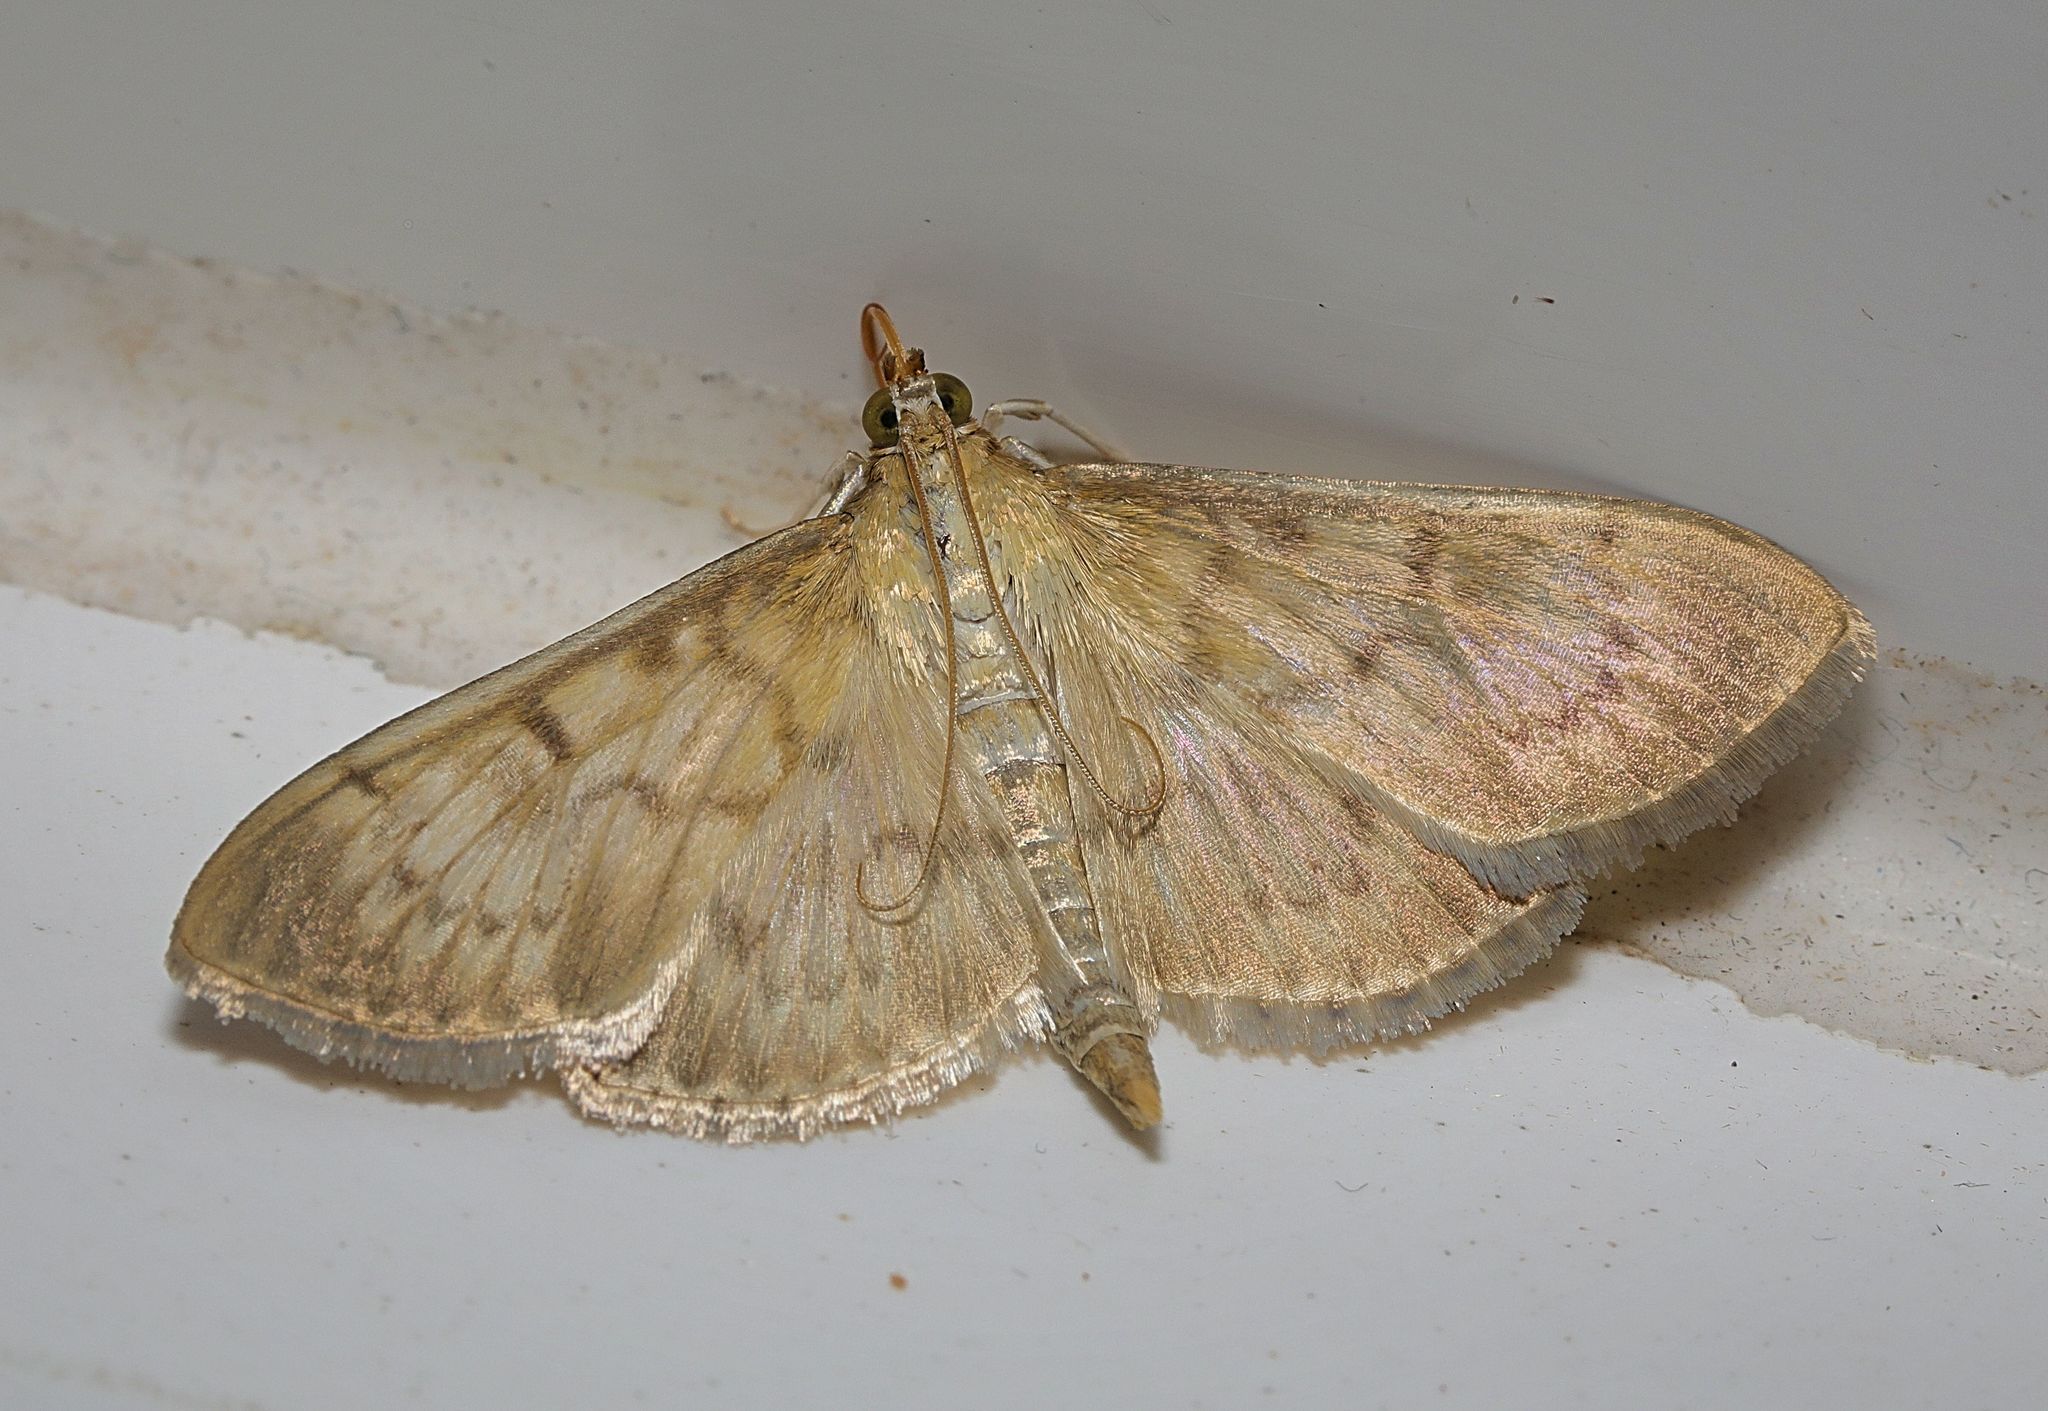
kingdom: Animalia
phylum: Arthropoda
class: Insecta
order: Lepidoptera
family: Crambidae
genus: Patania
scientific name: Patania ruralis
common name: Mother of pearl
